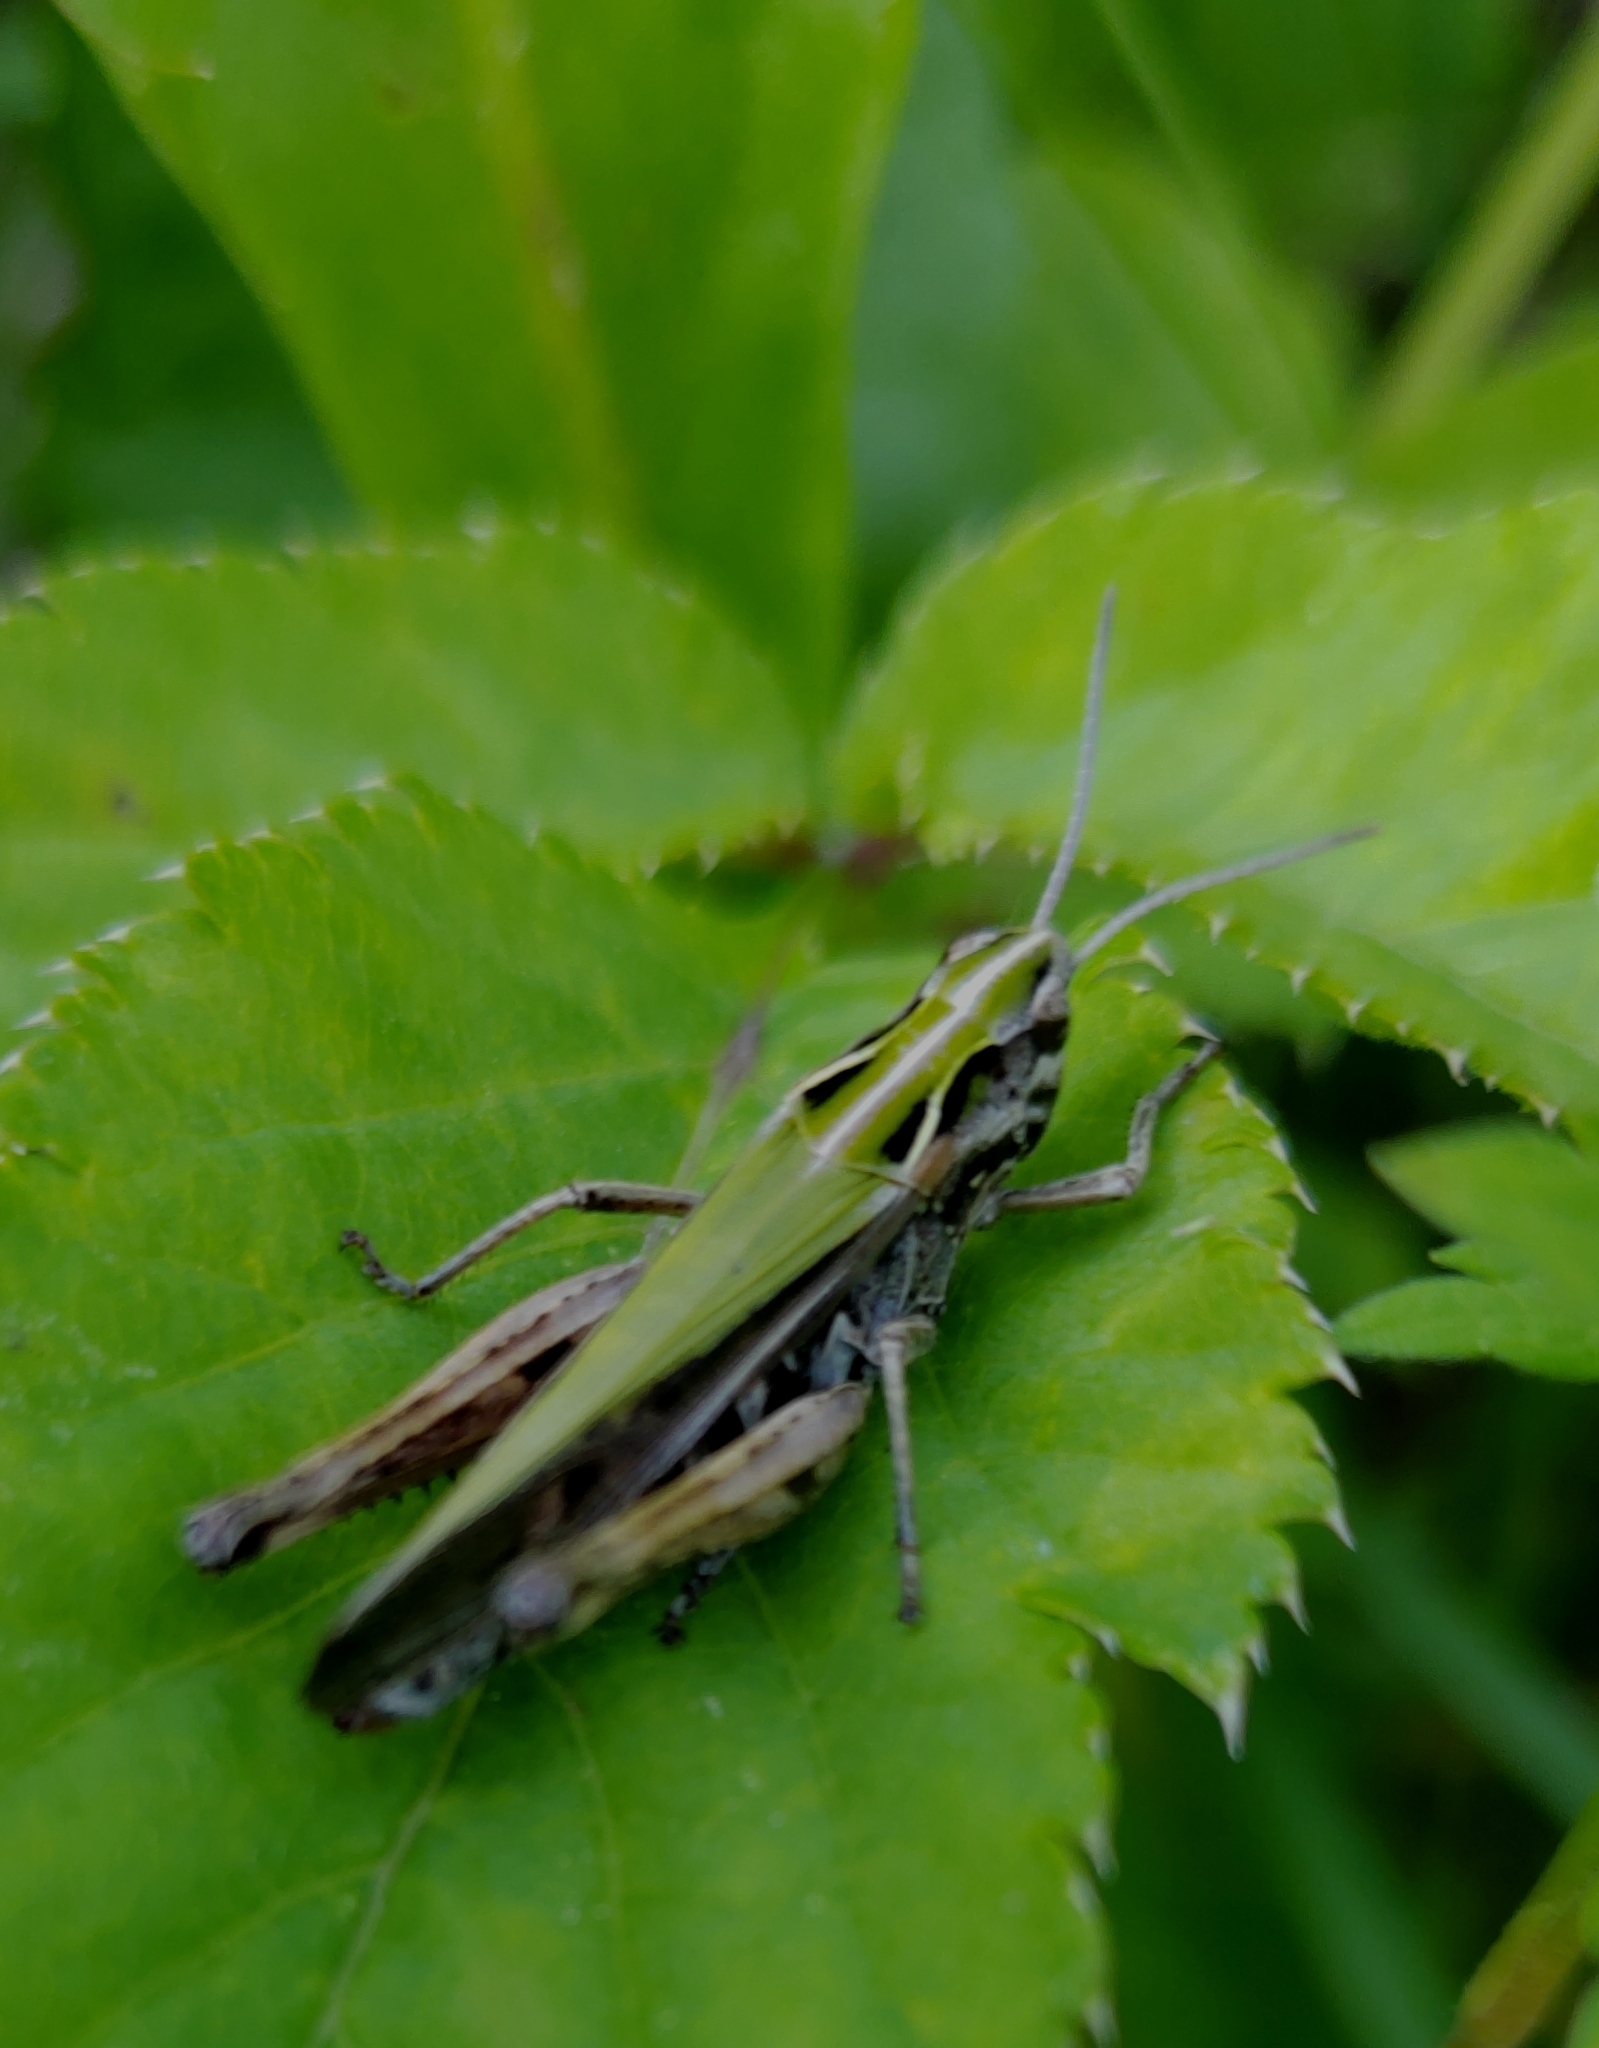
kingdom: Animalia
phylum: Arthropoda
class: Insecta
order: Orthoptera
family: Acrididae
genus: Omocestus
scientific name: Omocestus viridulus
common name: Common green grasshopper
